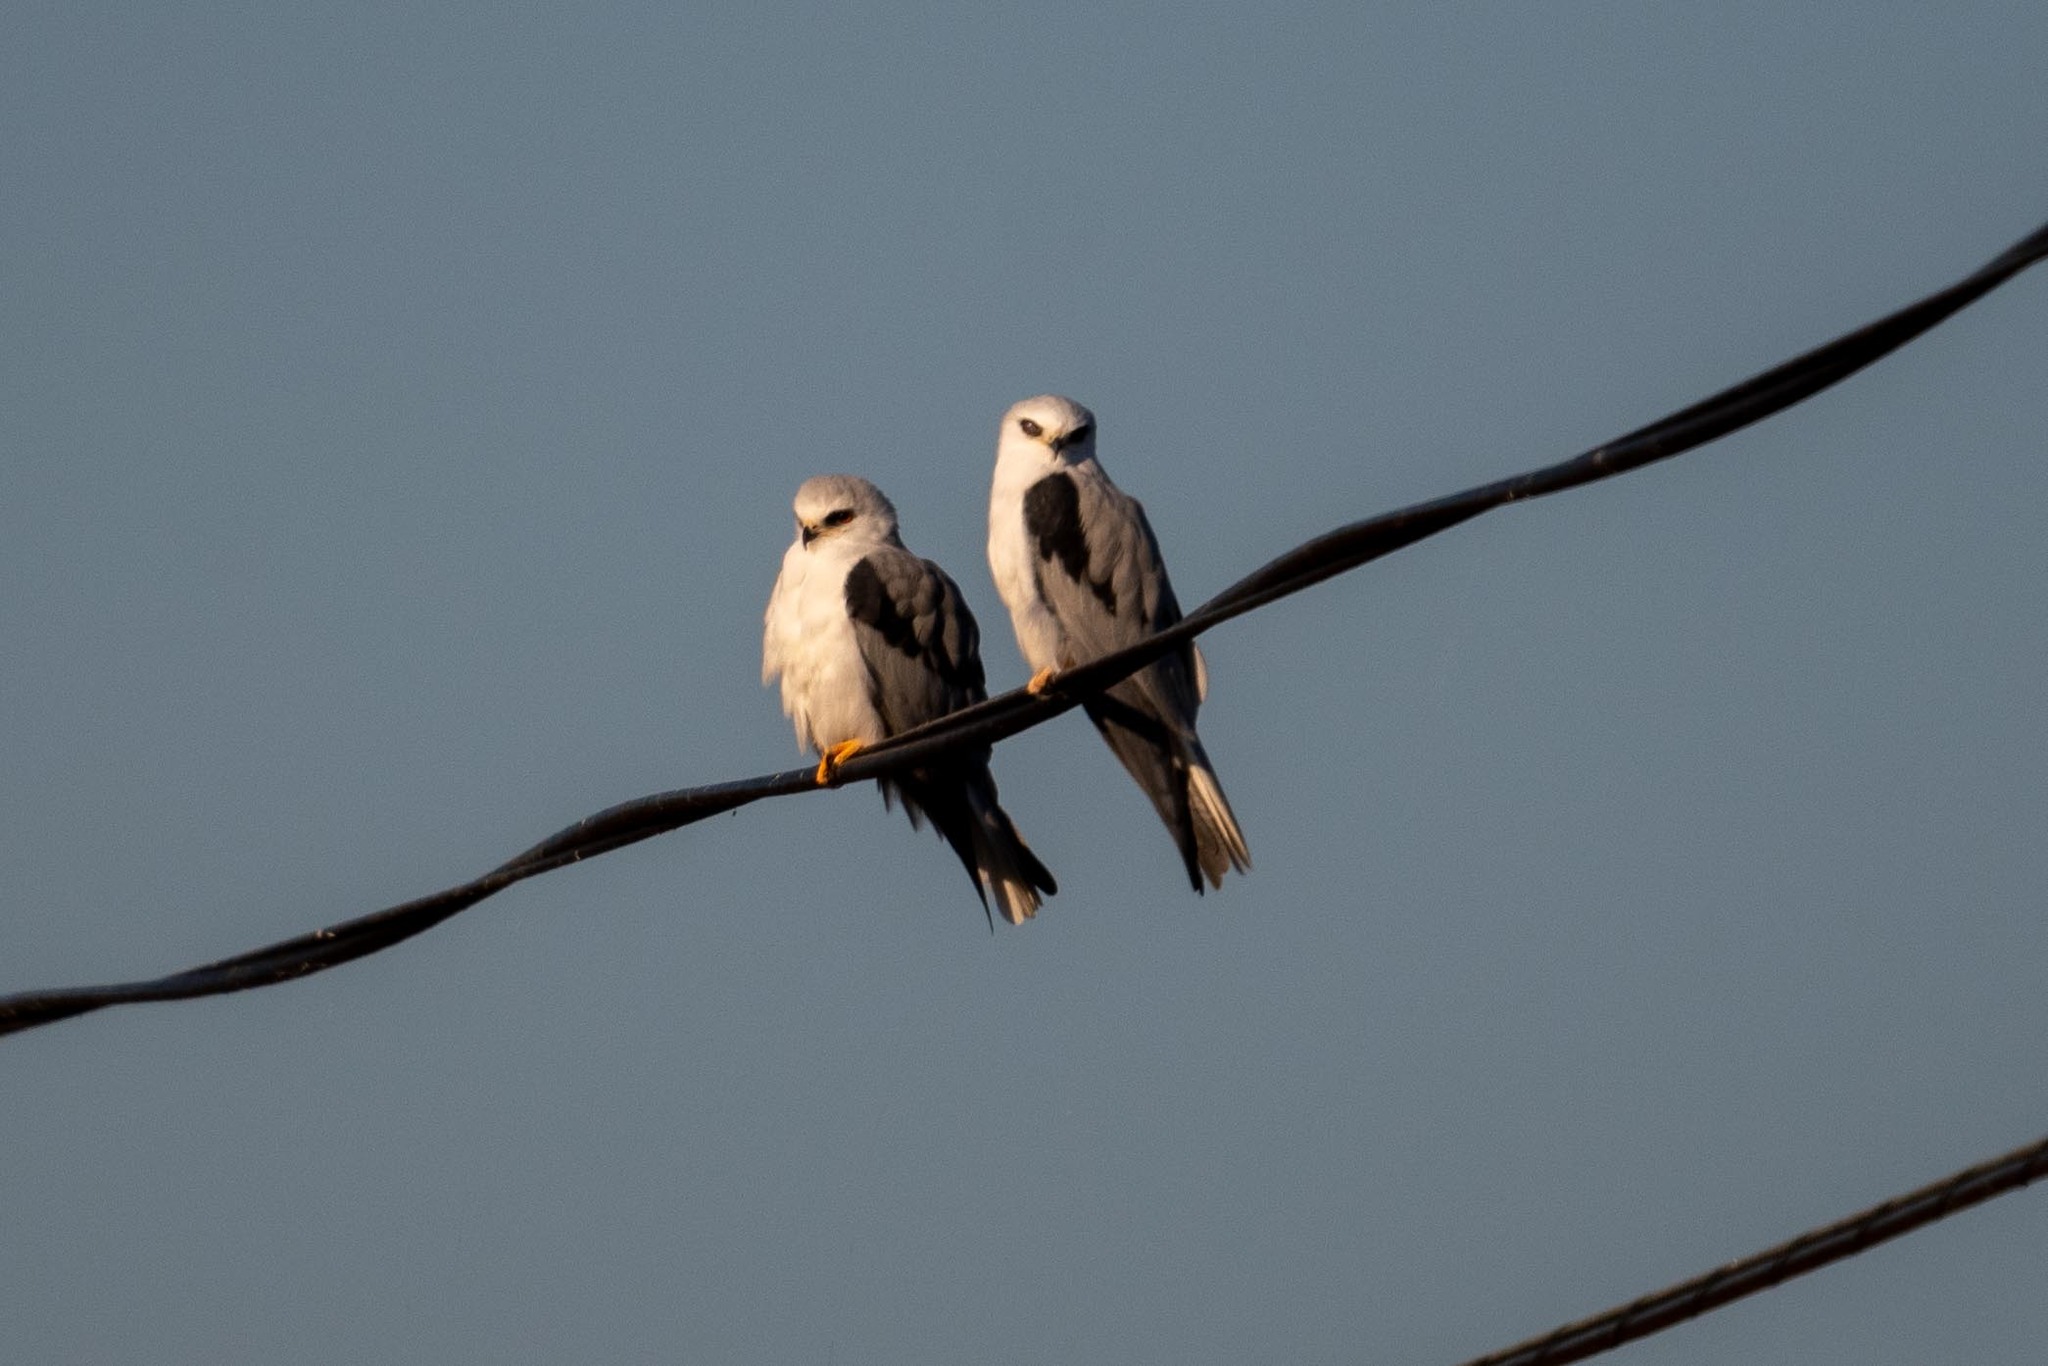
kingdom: Animalia
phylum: Chordata
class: Aves
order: Accipitriformes
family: Accipitridae
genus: Elanus
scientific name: Elanus leucurus
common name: White-tailed kite
